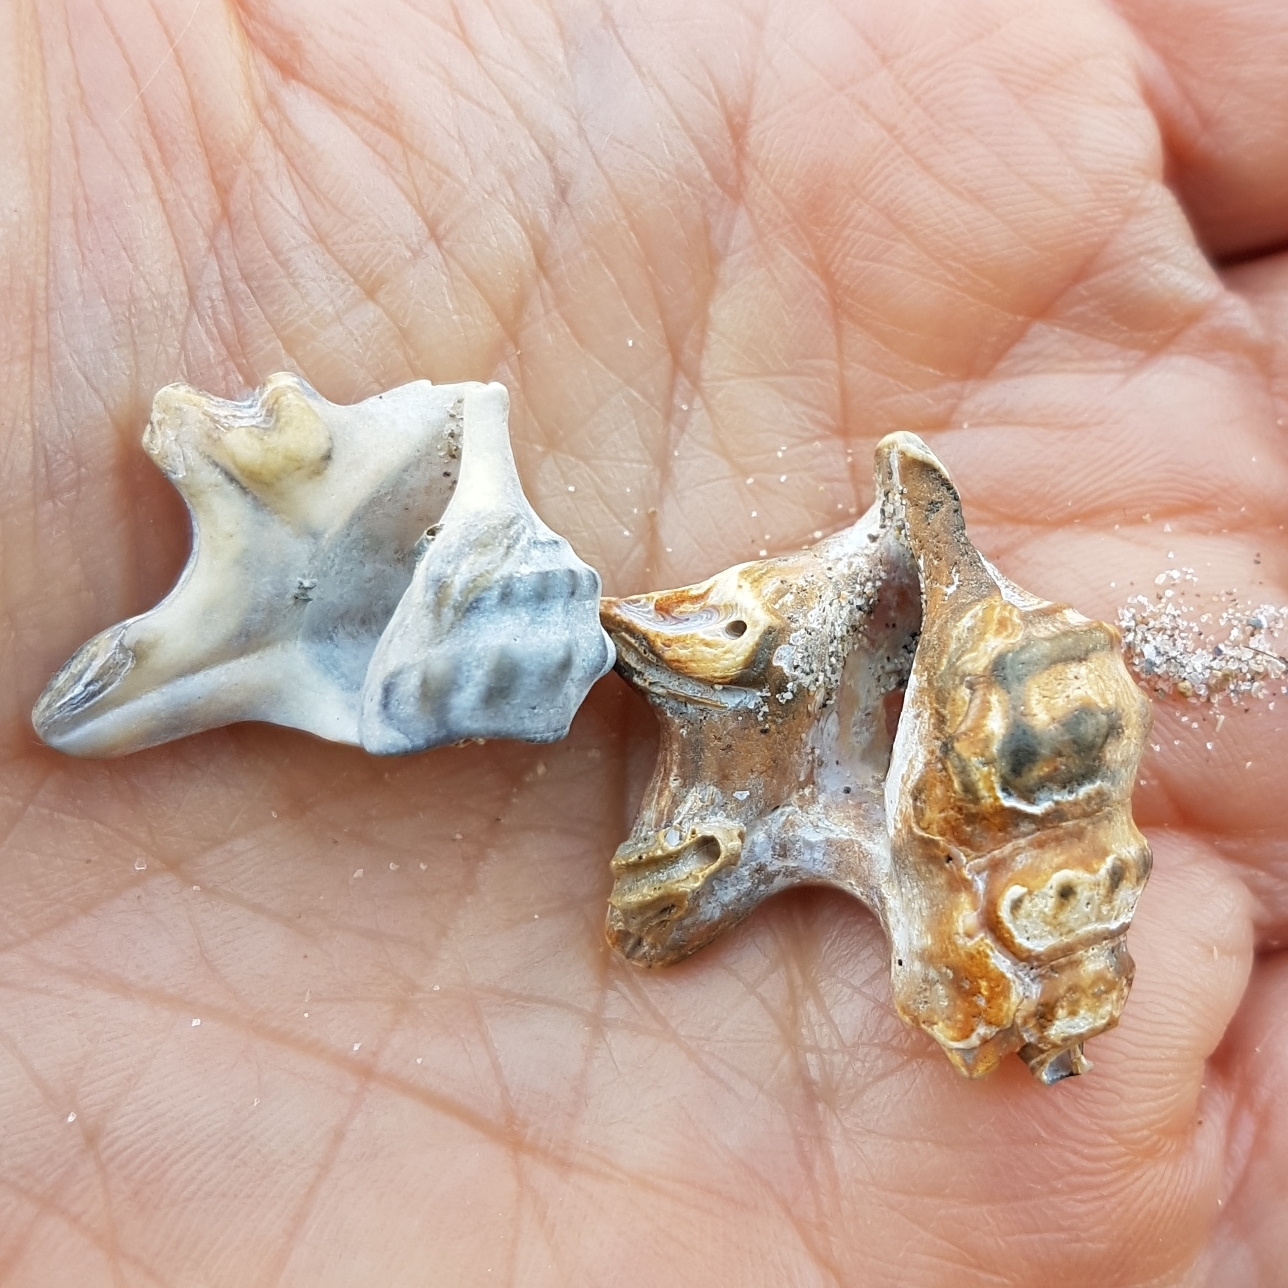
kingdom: Animalia
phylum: Mollusca
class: Gastropoda
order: Littorinimorpha
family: Aporrhaidae
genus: Aporrhais
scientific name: Aporrhais pespelecani
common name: Common pelican’s foot
